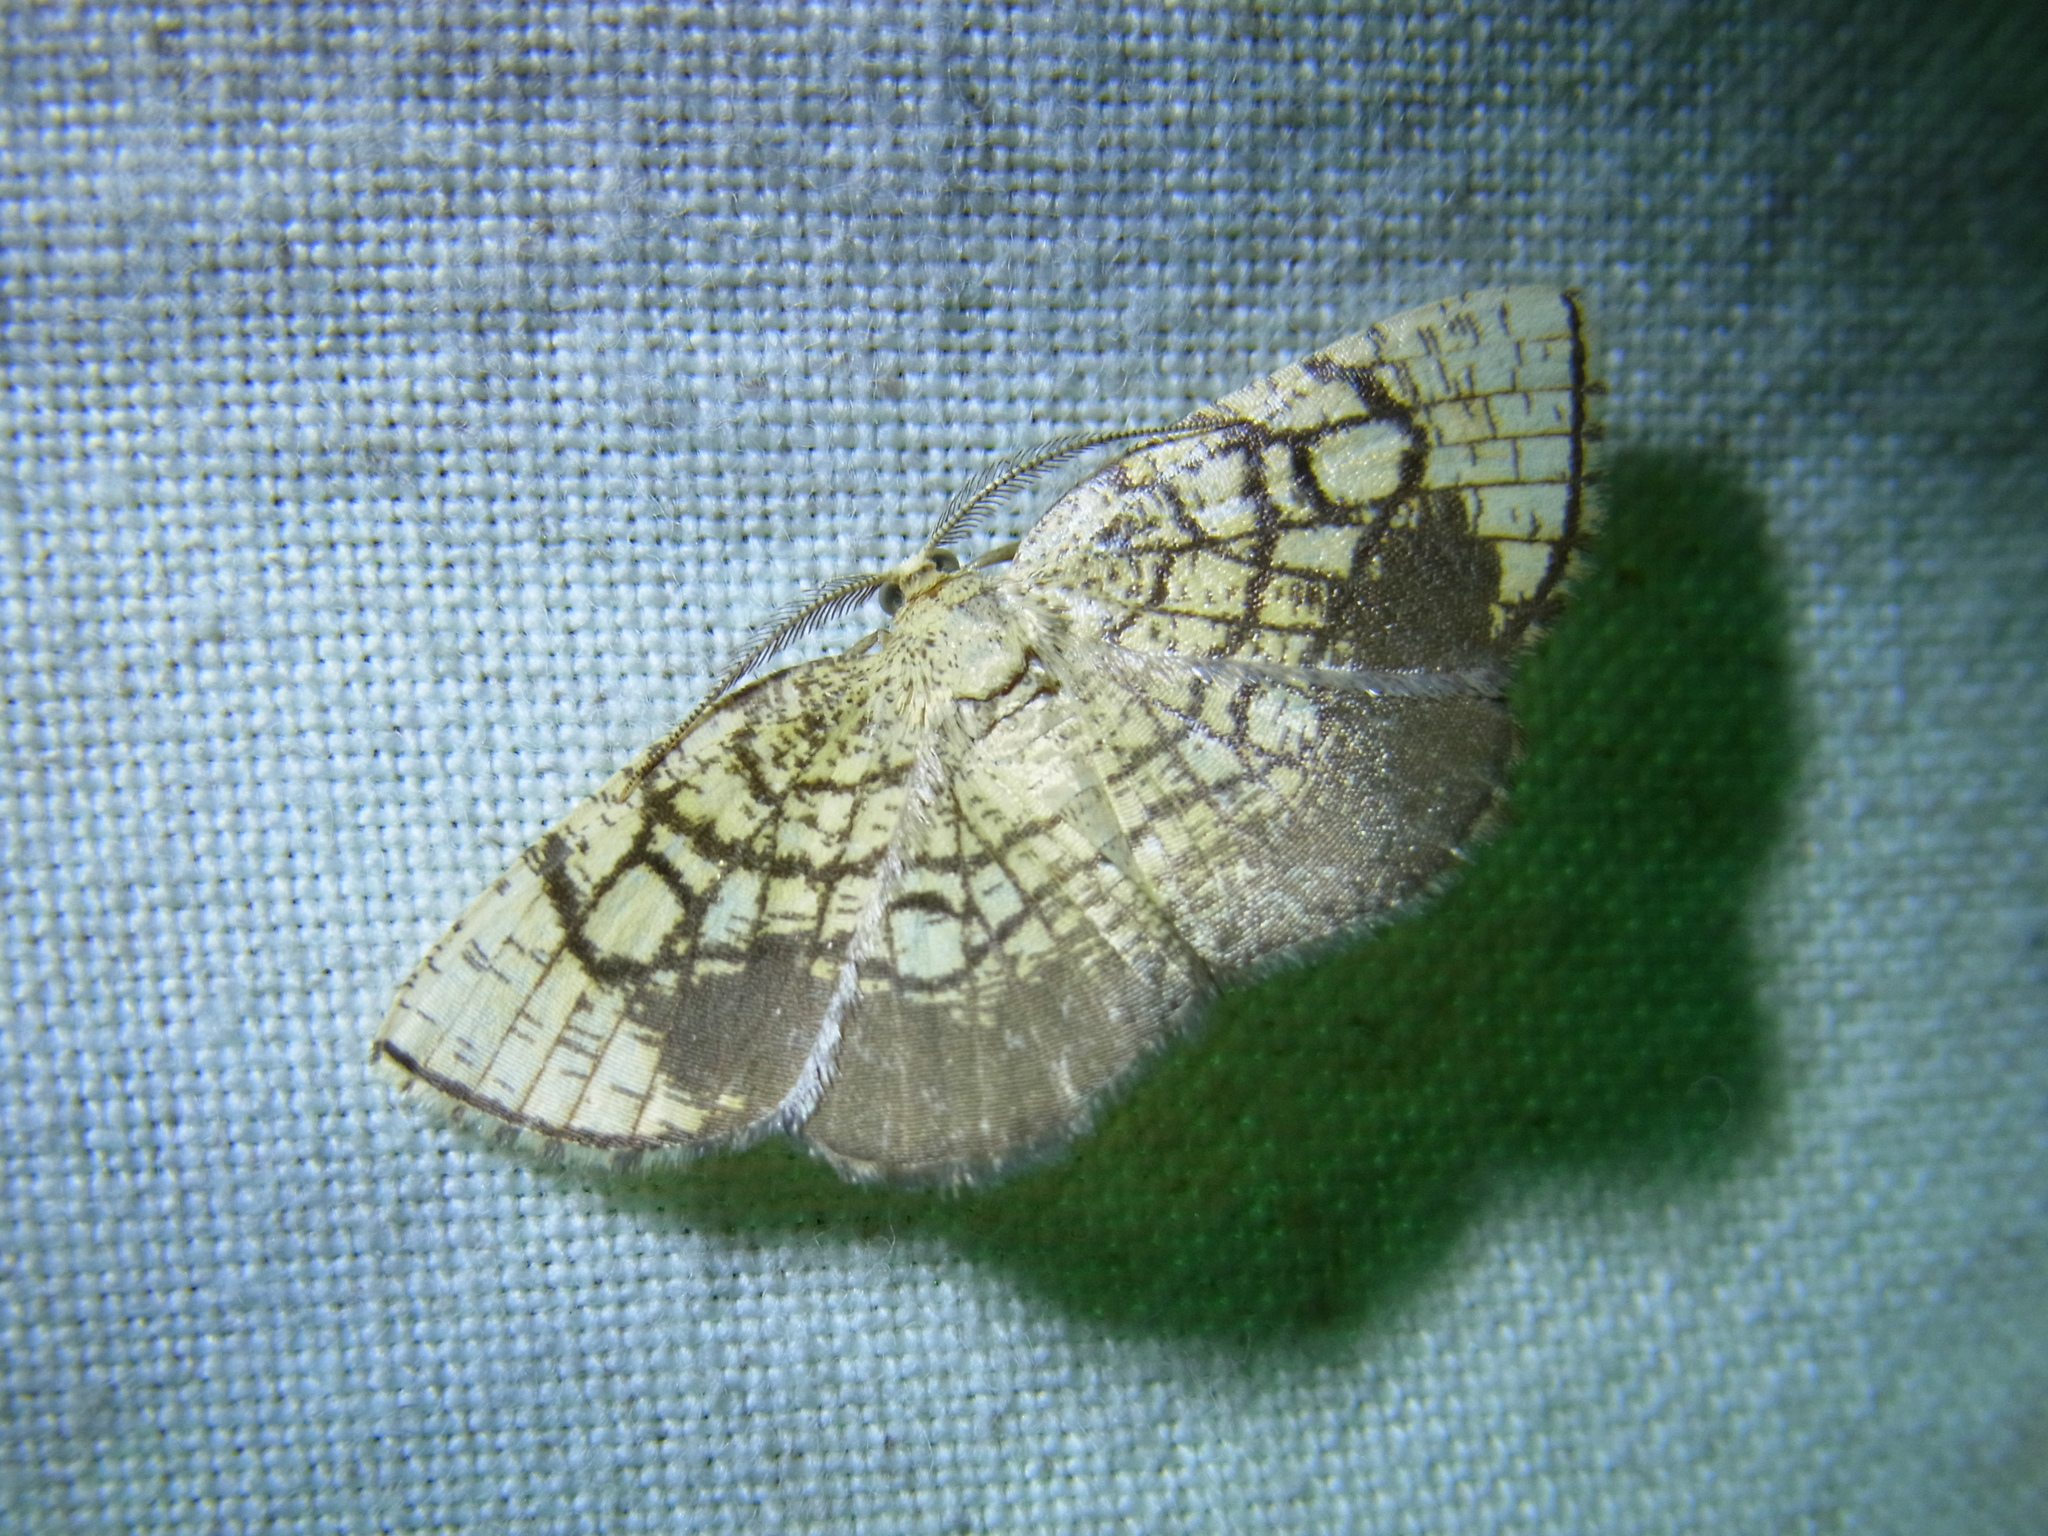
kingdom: Animalia
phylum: Arthropoda
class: Insecta
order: Lepidoptera
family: Geometridae
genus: Cabera
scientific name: Cabera griseolimbata
